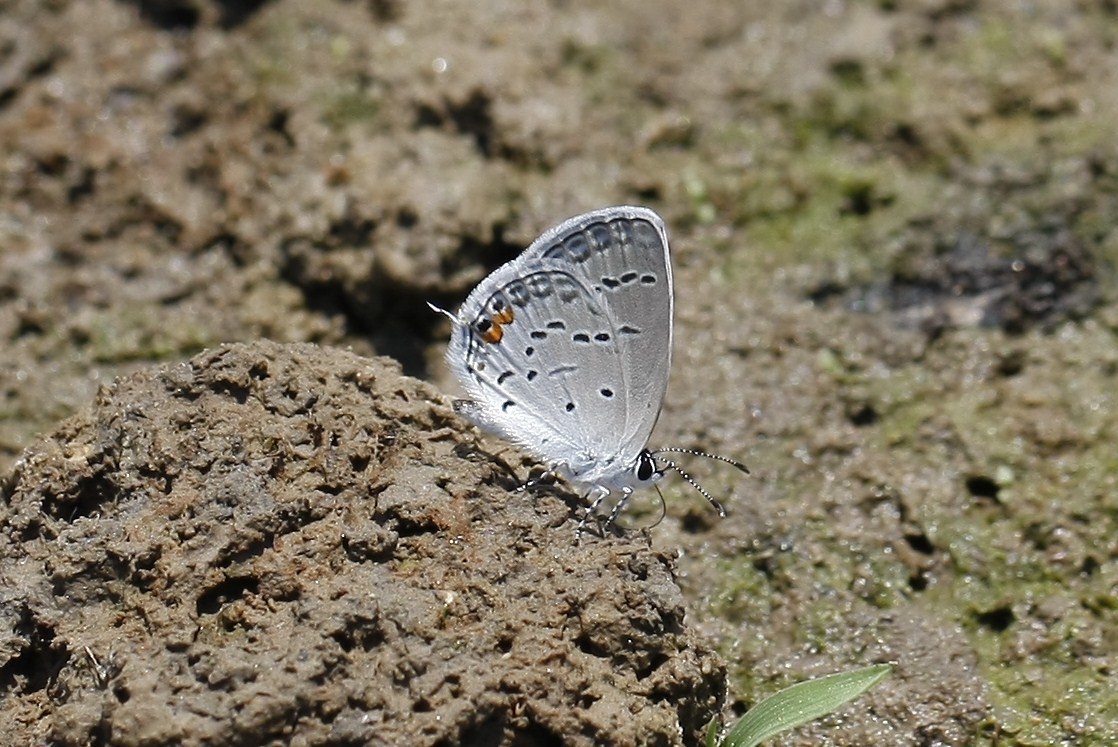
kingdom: Animalia
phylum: Arthropoda
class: Insecta
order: Lepidoptera
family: Lycaenidae
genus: Elkalyce
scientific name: Elkalyce comyntas
